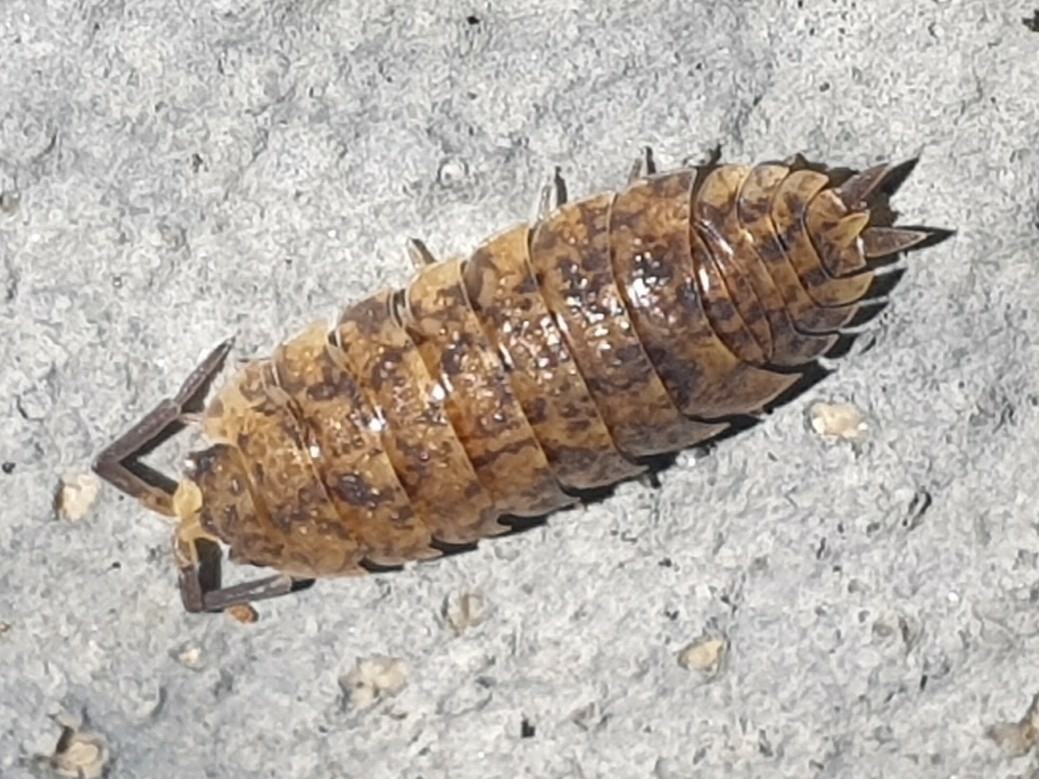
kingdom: Animalia
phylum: Arthropoda
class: Malacostraca
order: Isopoda
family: Porcellionidae
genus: Porcellio
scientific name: Porcellio scaber
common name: Common rough woodlouse
